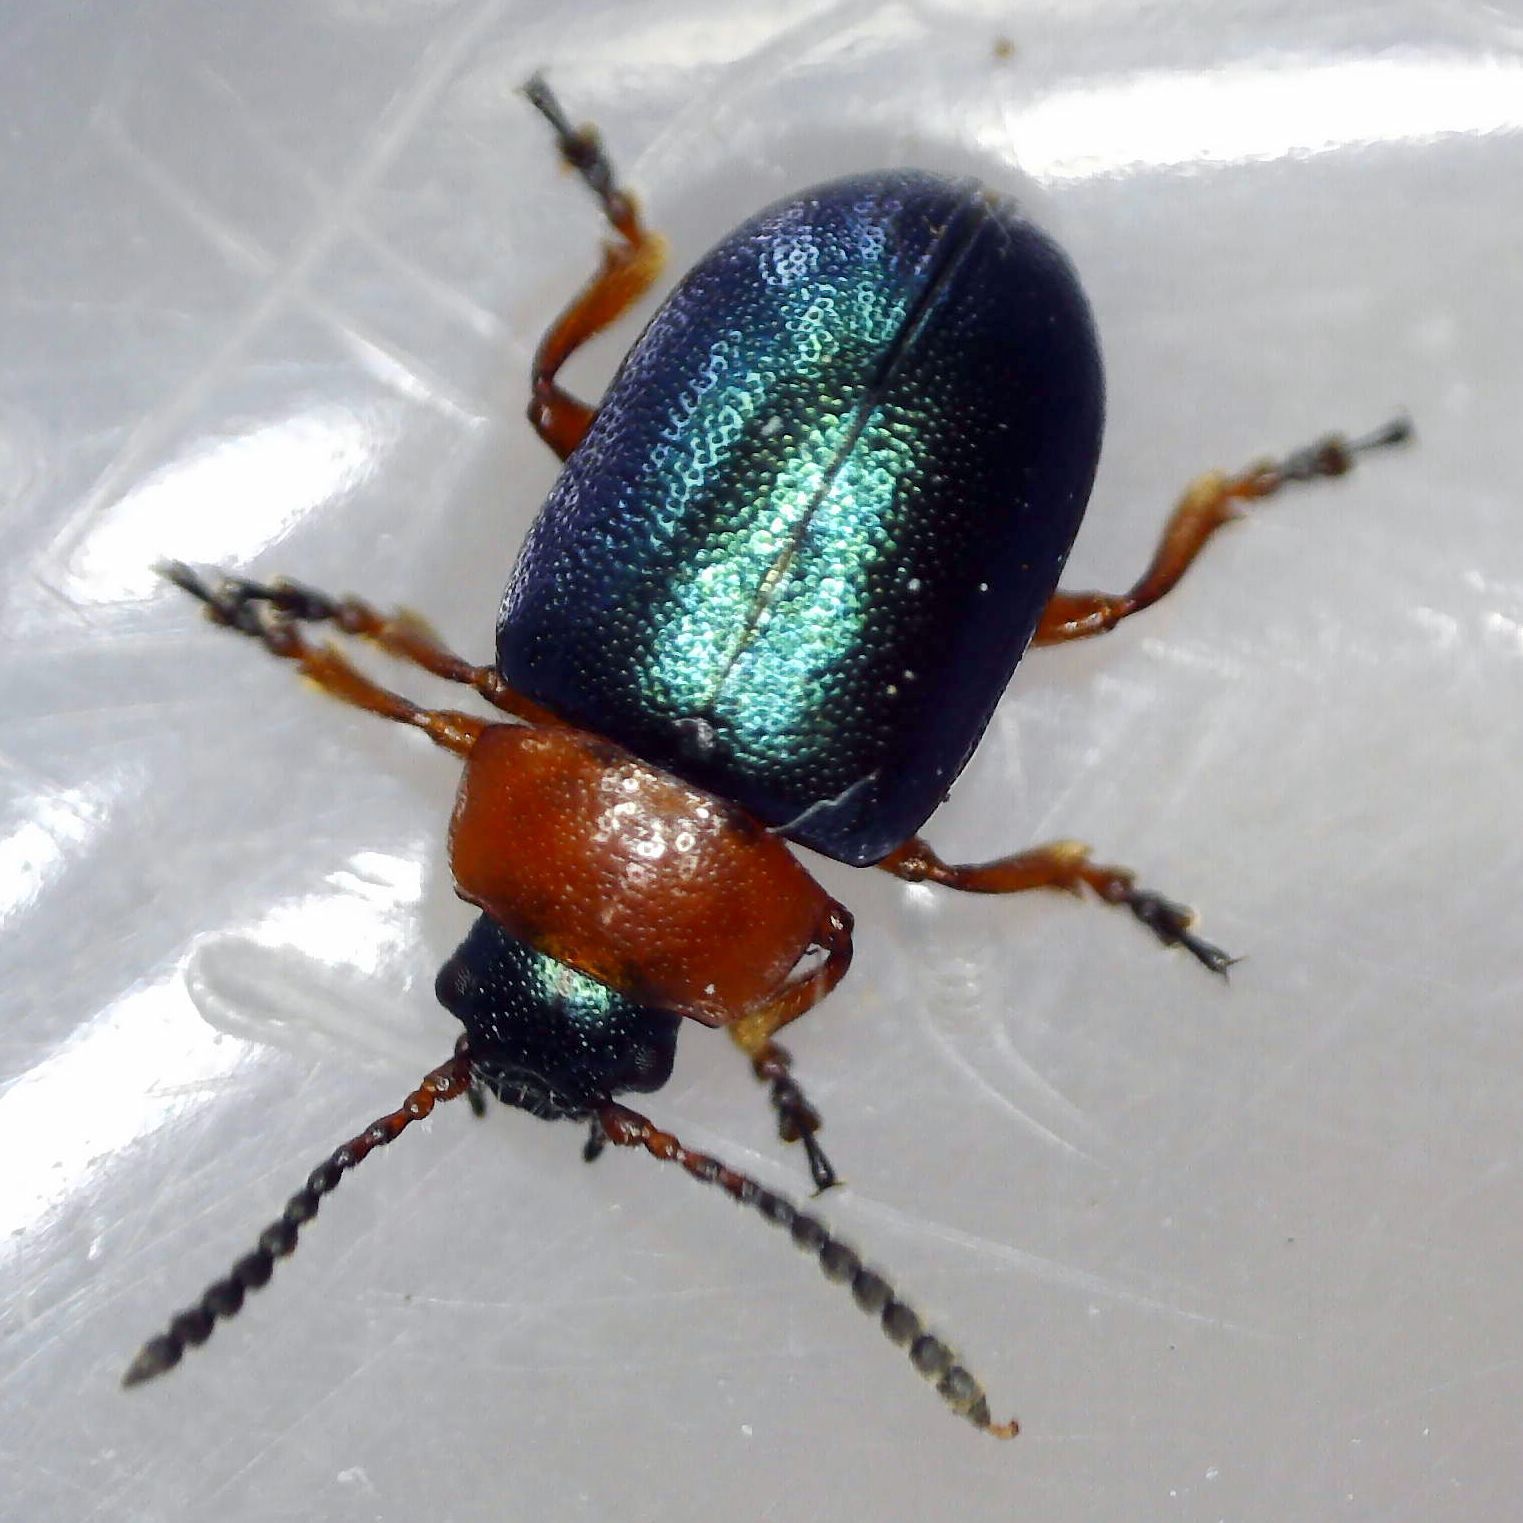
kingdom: Animalia
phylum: Arthropoda
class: Insecta
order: Coleoptera
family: Chrysomelidae
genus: Gastrophysa
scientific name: Gastrophysa polygoni
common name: Knotweed leaf beetle
